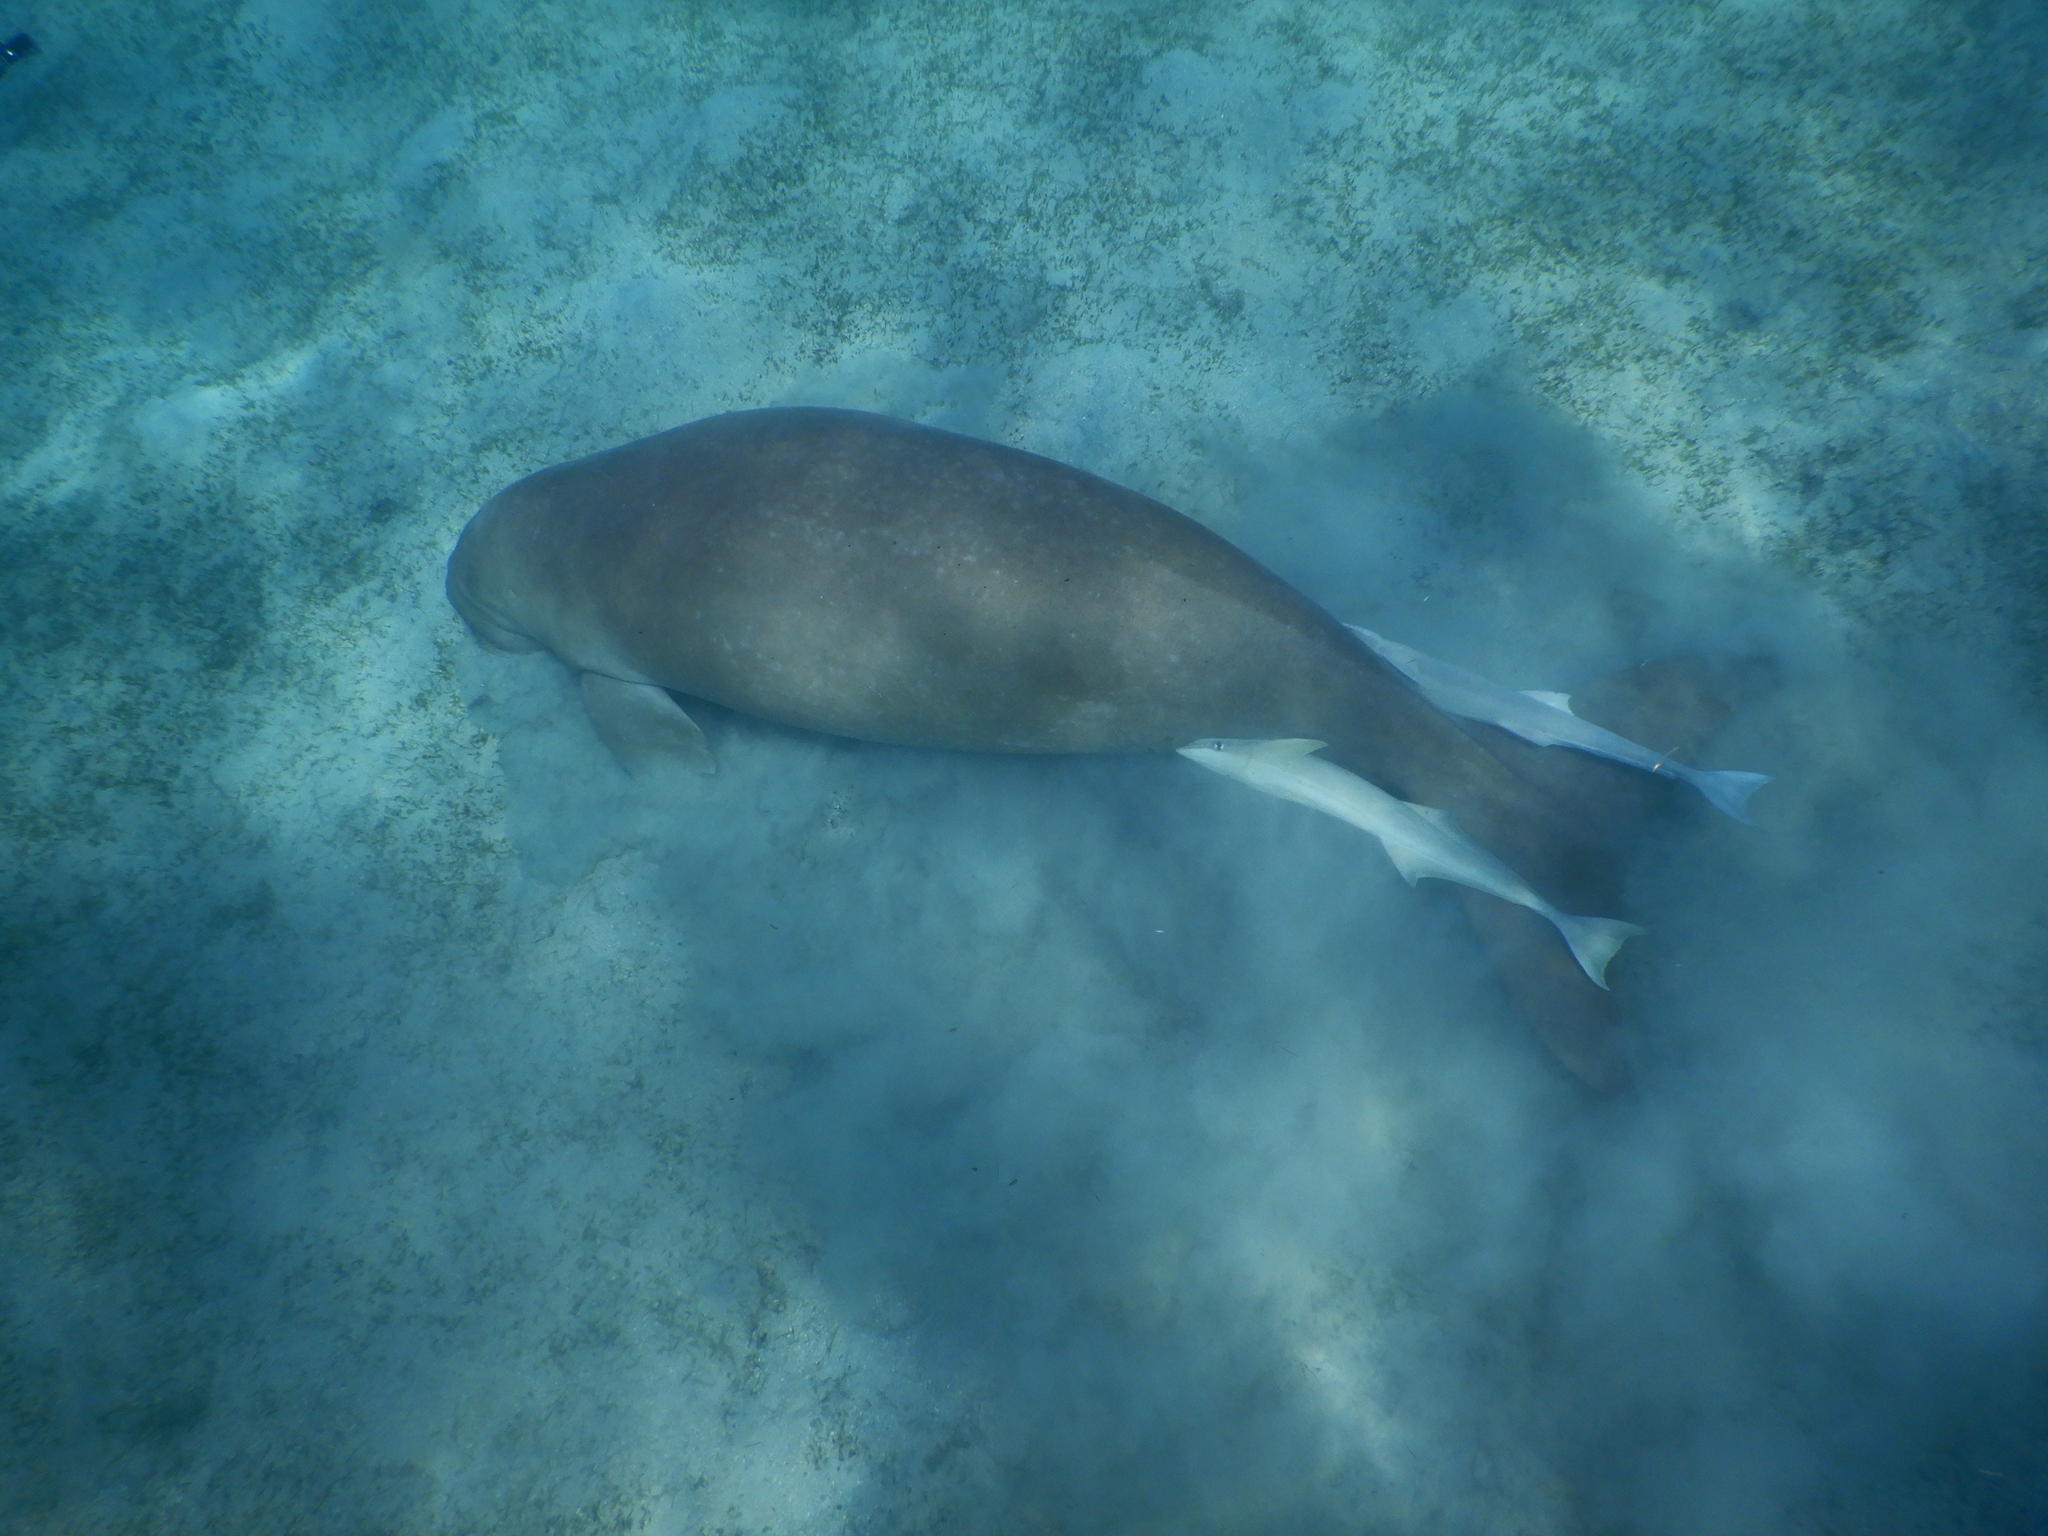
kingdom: Animalia
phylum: Chordata
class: Mammalia
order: Sirenia
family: Dugongidae
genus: Dugong
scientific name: Dugong dugon
